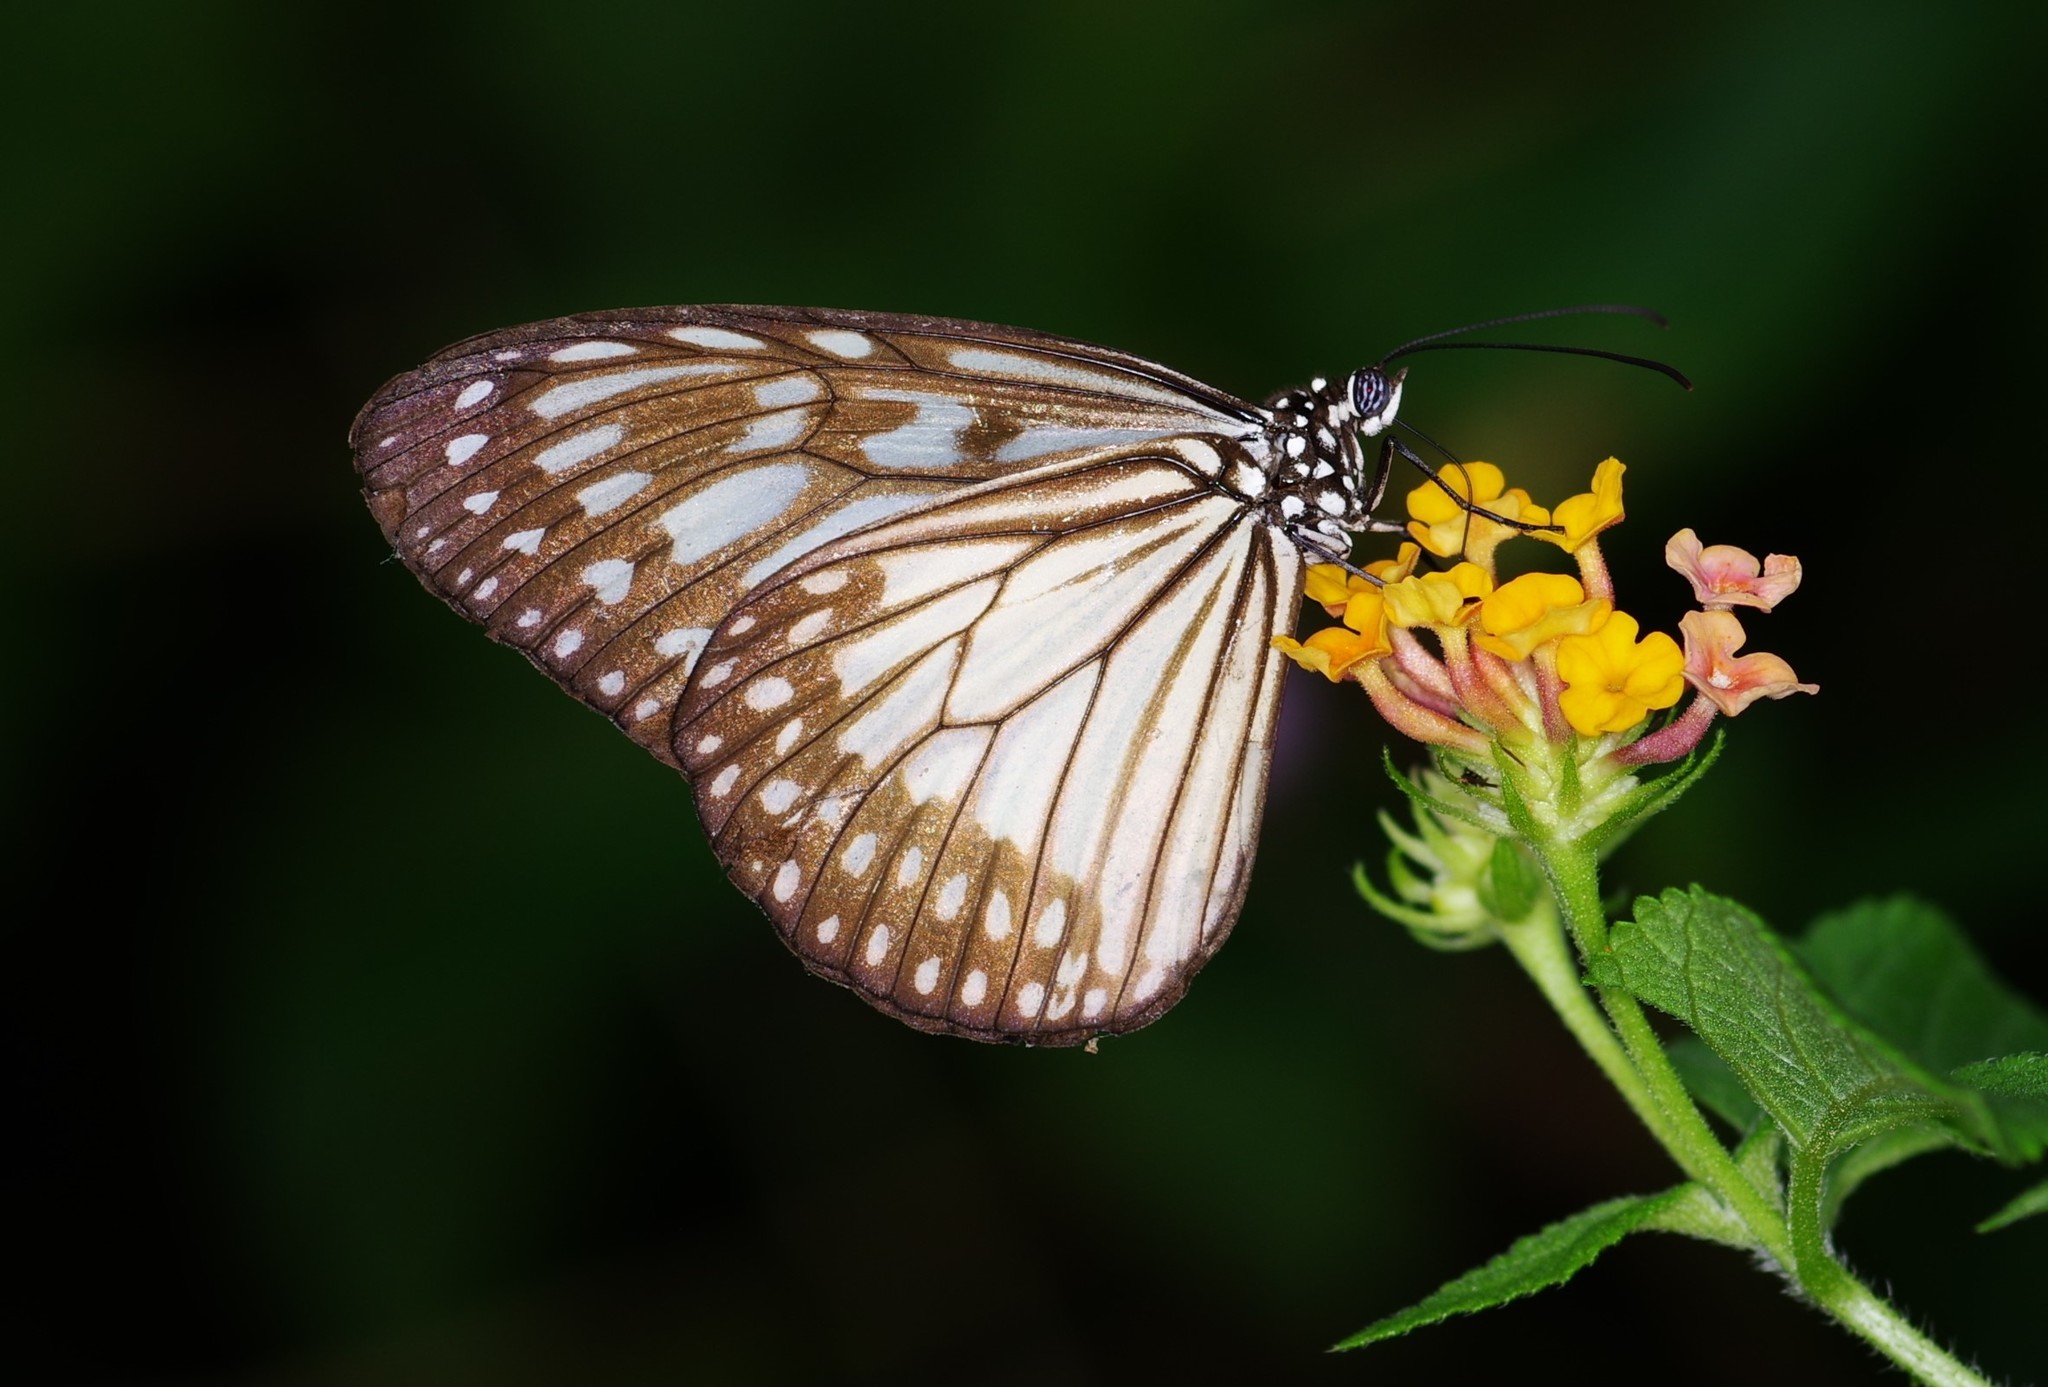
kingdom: Animalia
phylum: Arthropoda
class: Insecta
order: Lepidoptera
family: Nymphalidae
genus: Ideopsis
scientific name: Ideopsis juventa
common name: Grey glassy tiger
